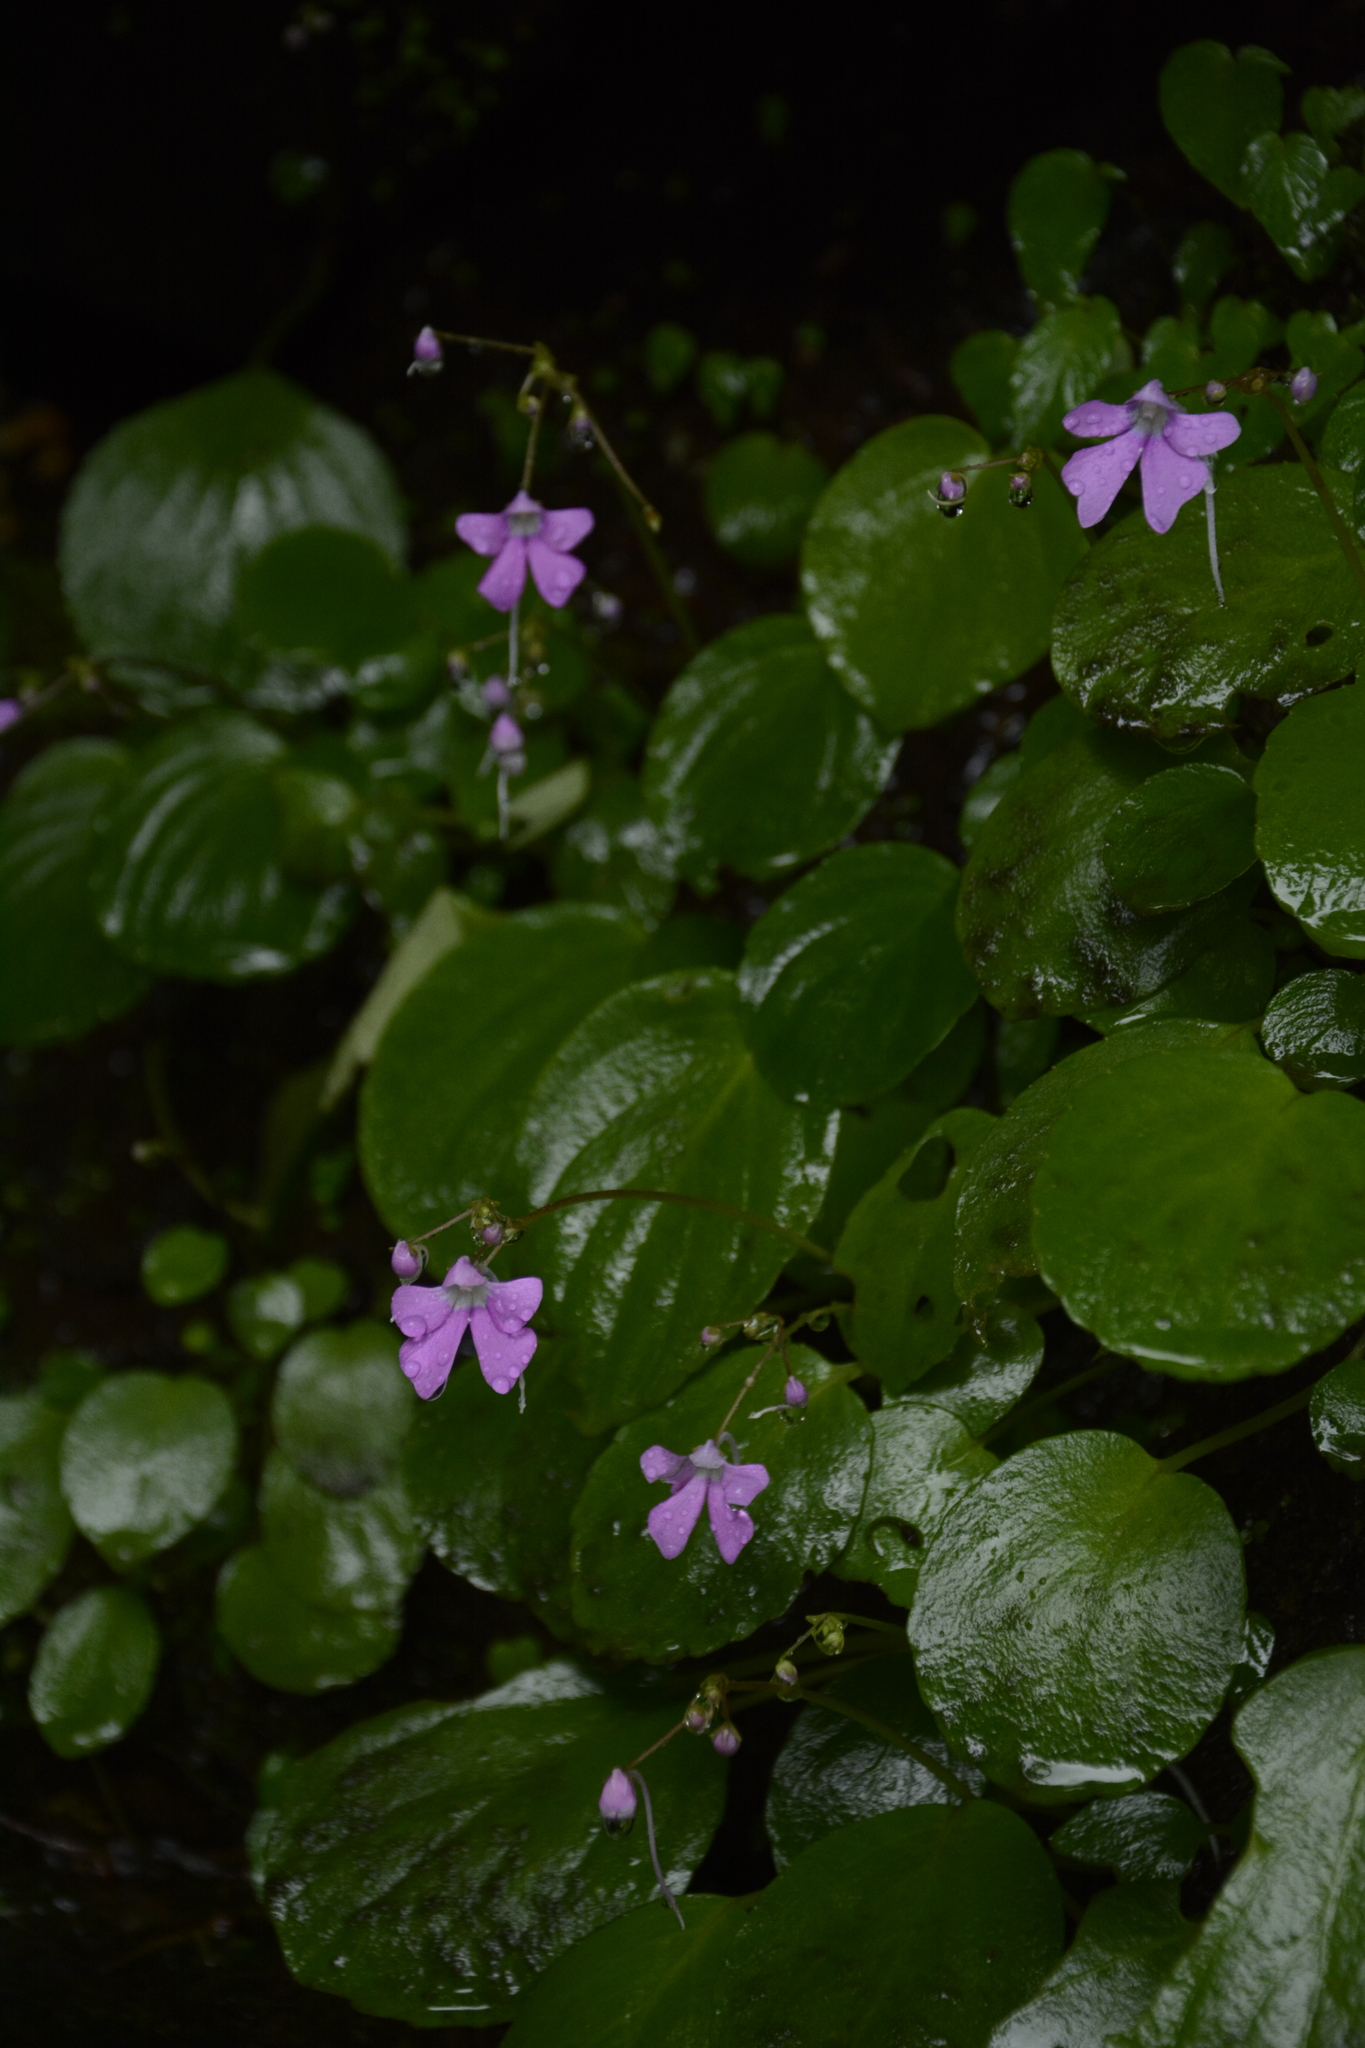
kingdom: Plantae
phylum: Tracheophyta
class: Magnoliopsida
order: Ericales
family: Balsaminaceae
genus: Impatiens
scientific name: Impatiens acaulis
